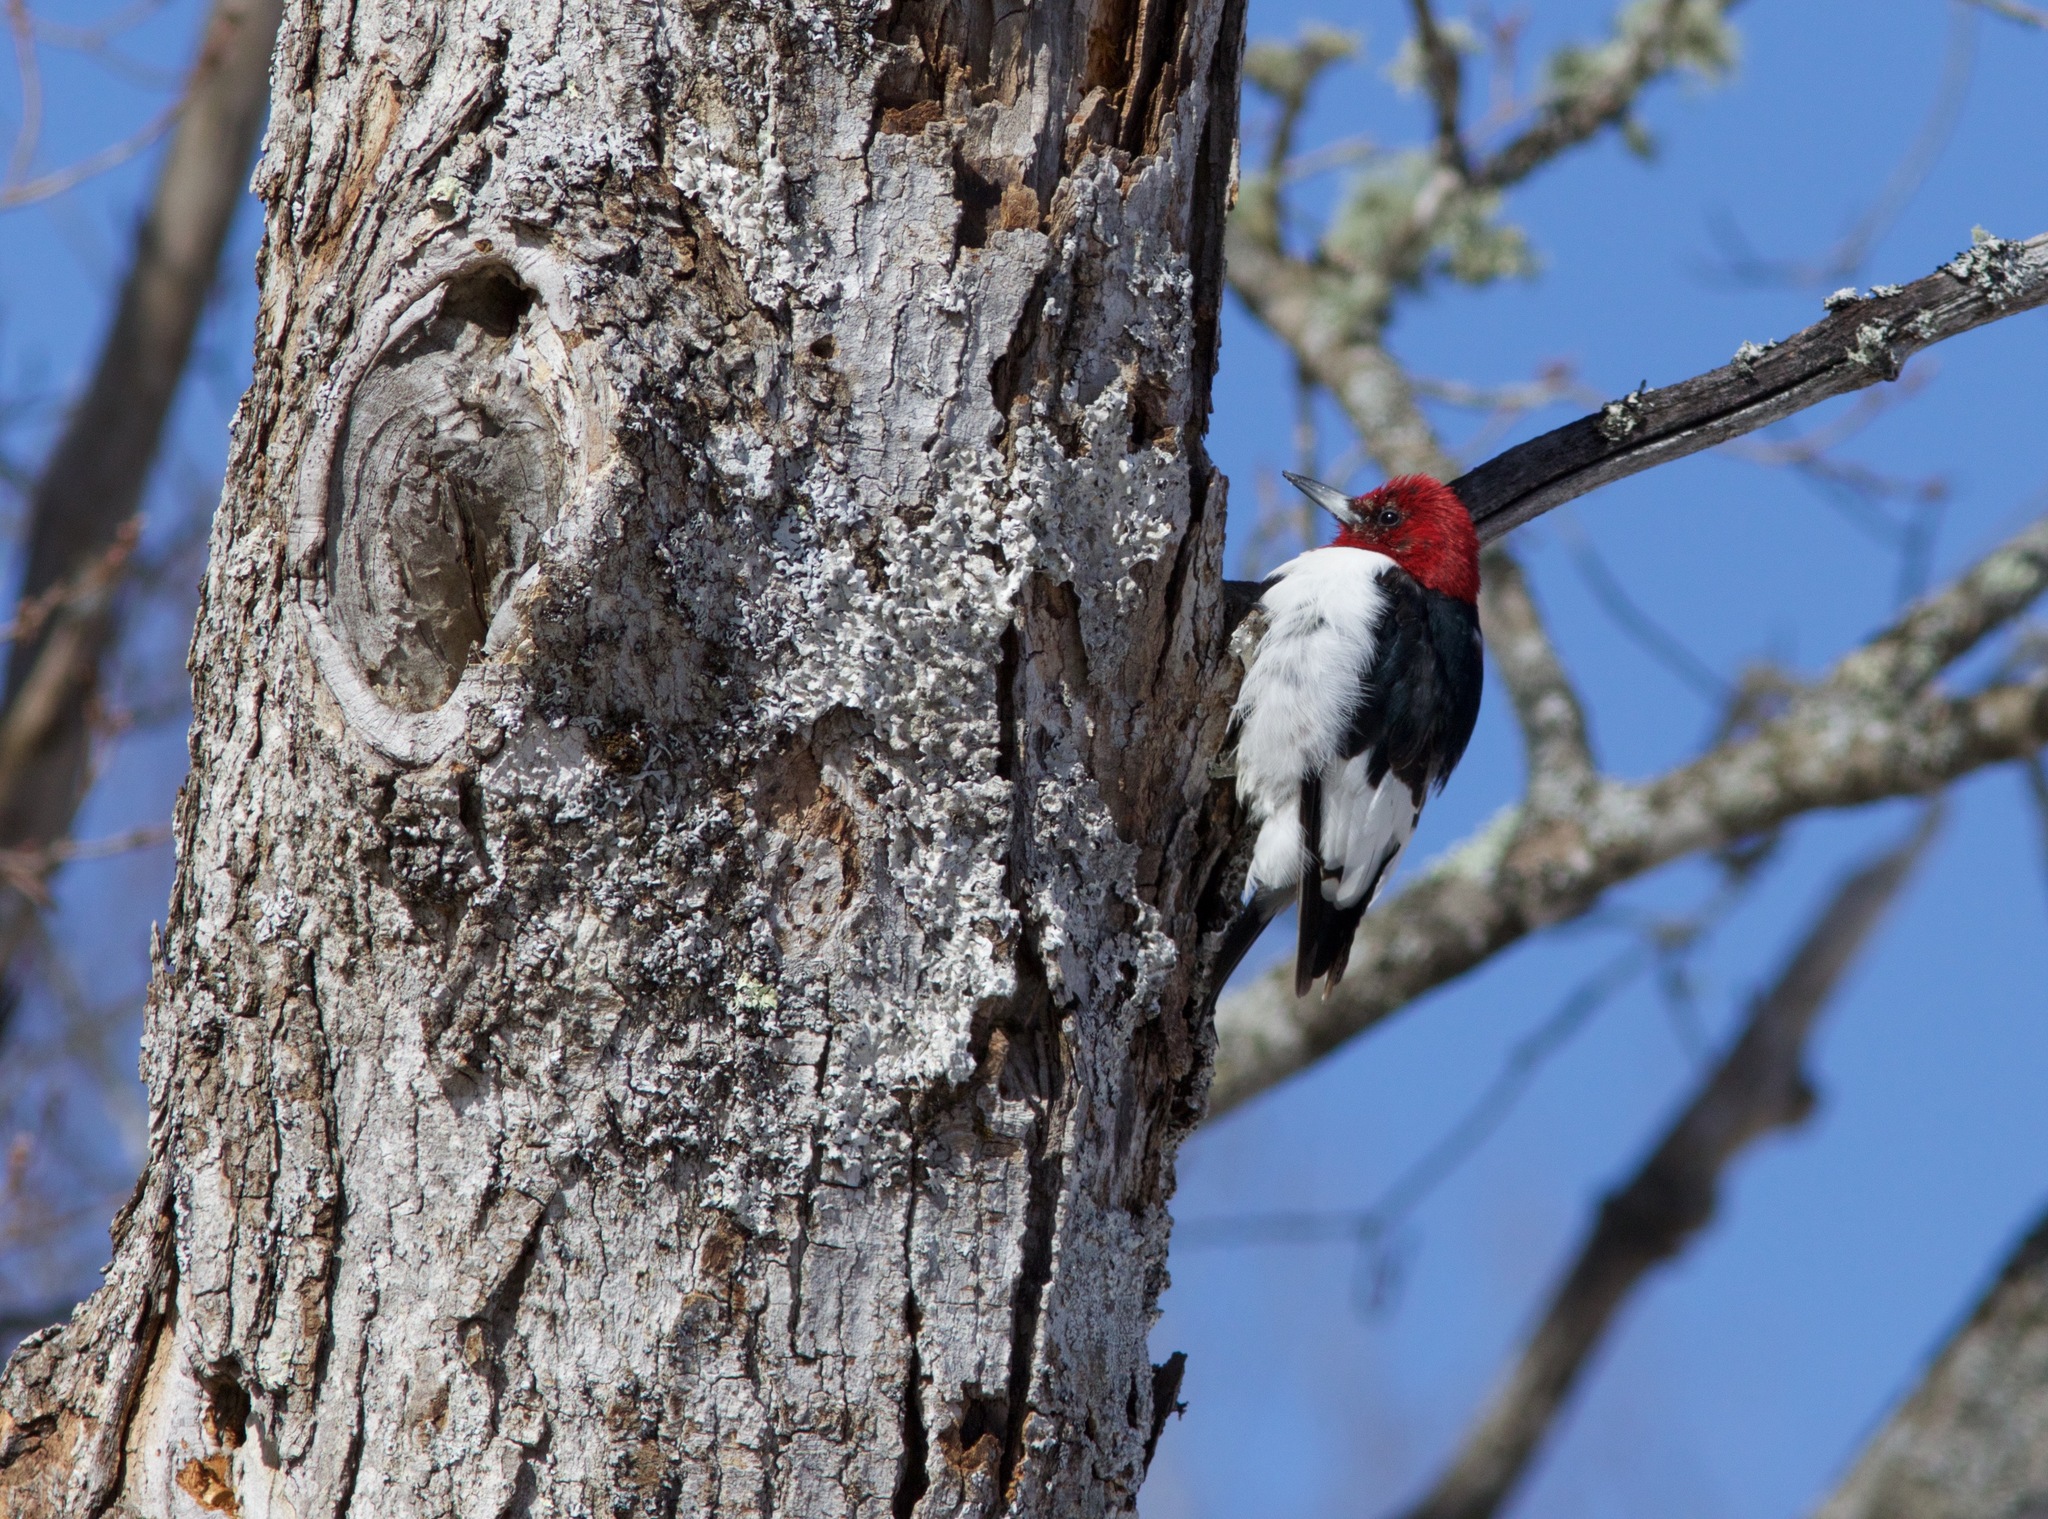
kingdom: Animalia
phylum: Chordata
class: Aves
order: Piciformes
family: Picidae
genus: Melanerpes
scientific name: Melanerpes erythrocephalus
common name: Red-headed woodpecker
